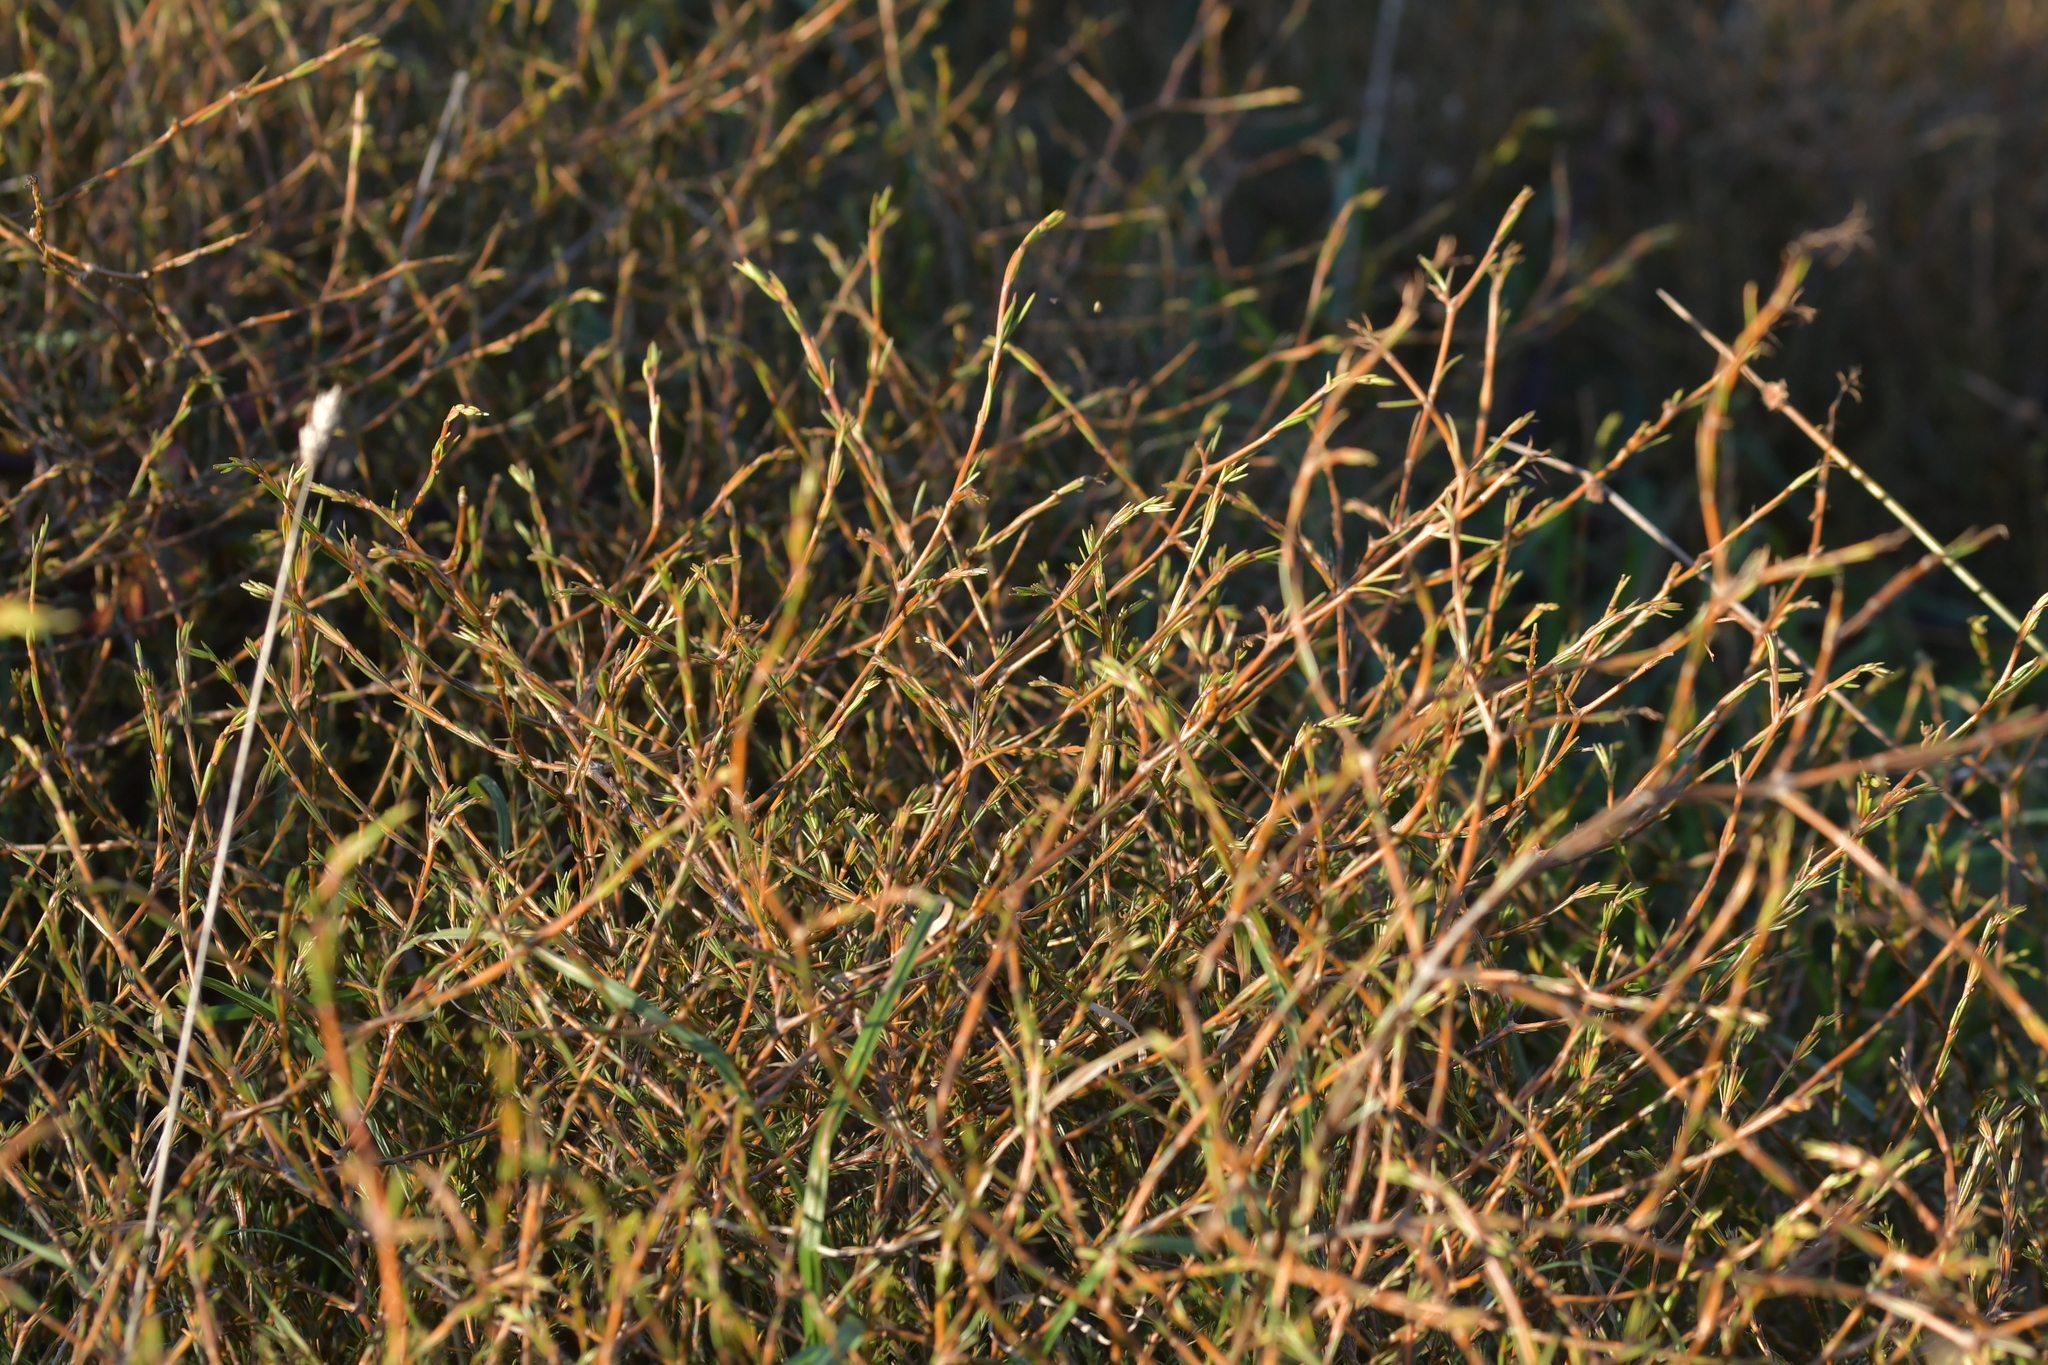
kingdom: Plantae
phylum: Tracheophyta
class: Magnoliopsida
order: Gentianales
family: Rubiaceae
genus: Coprosma
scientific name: Coprosma acerosa
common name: Sand coprosma
